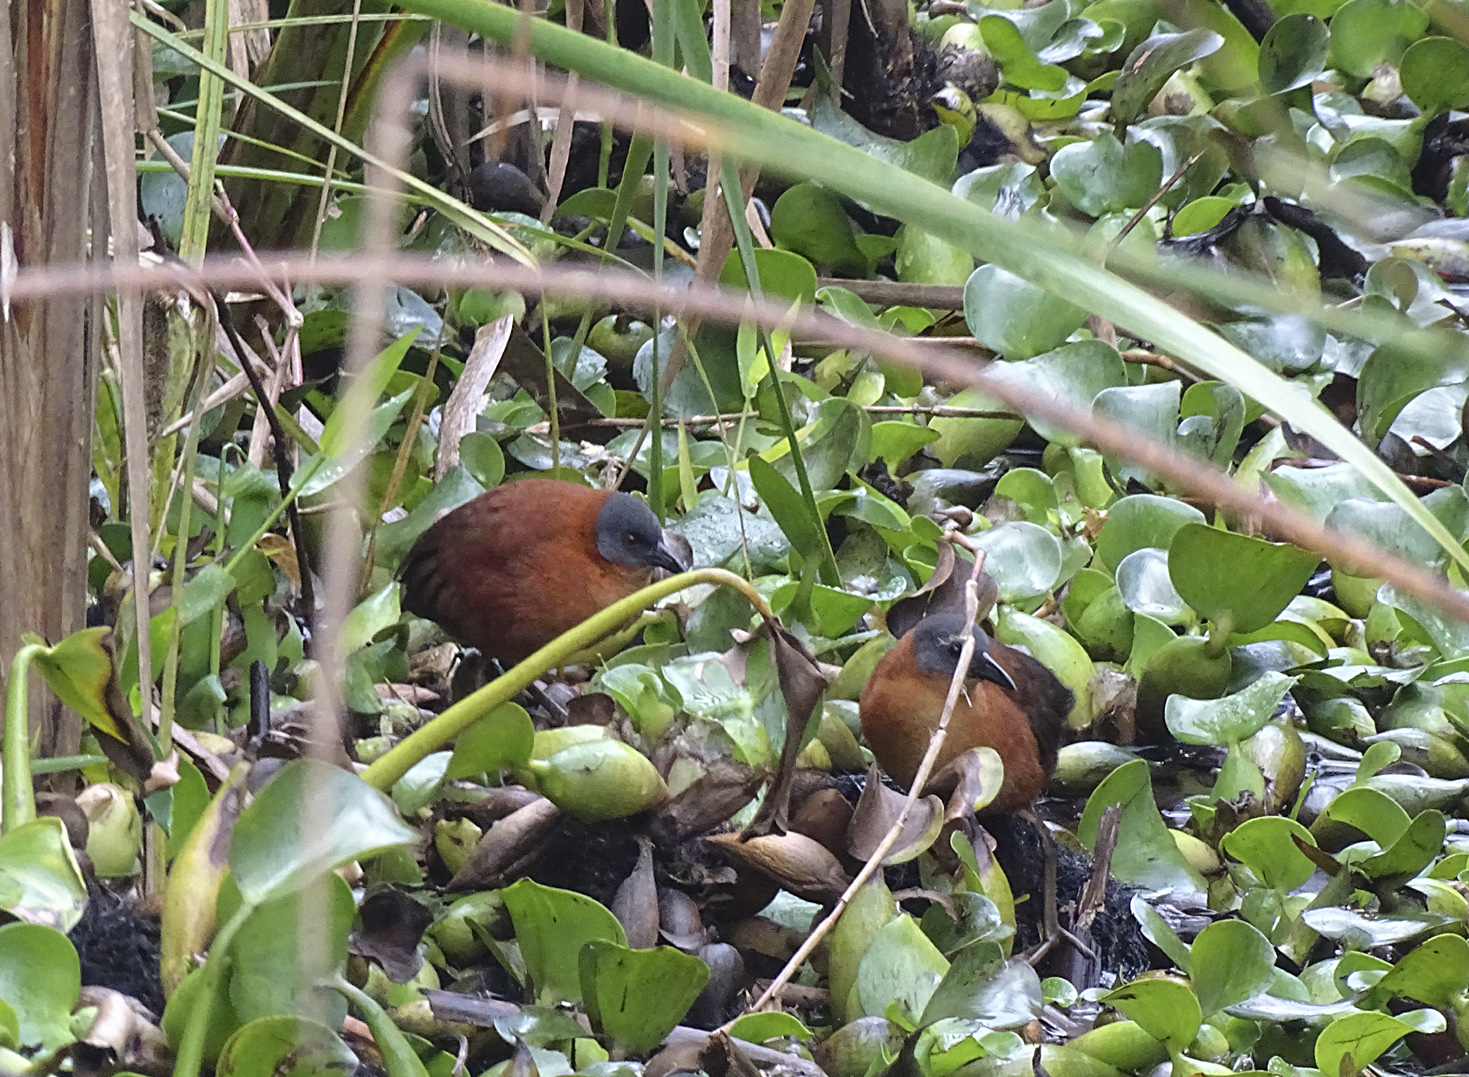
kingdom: Animalia
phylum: Chordata
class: Aves
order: Gruiformes
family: Rallidae
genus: Laterallus
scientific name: Laterallus ruber
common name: Ruddy crake
